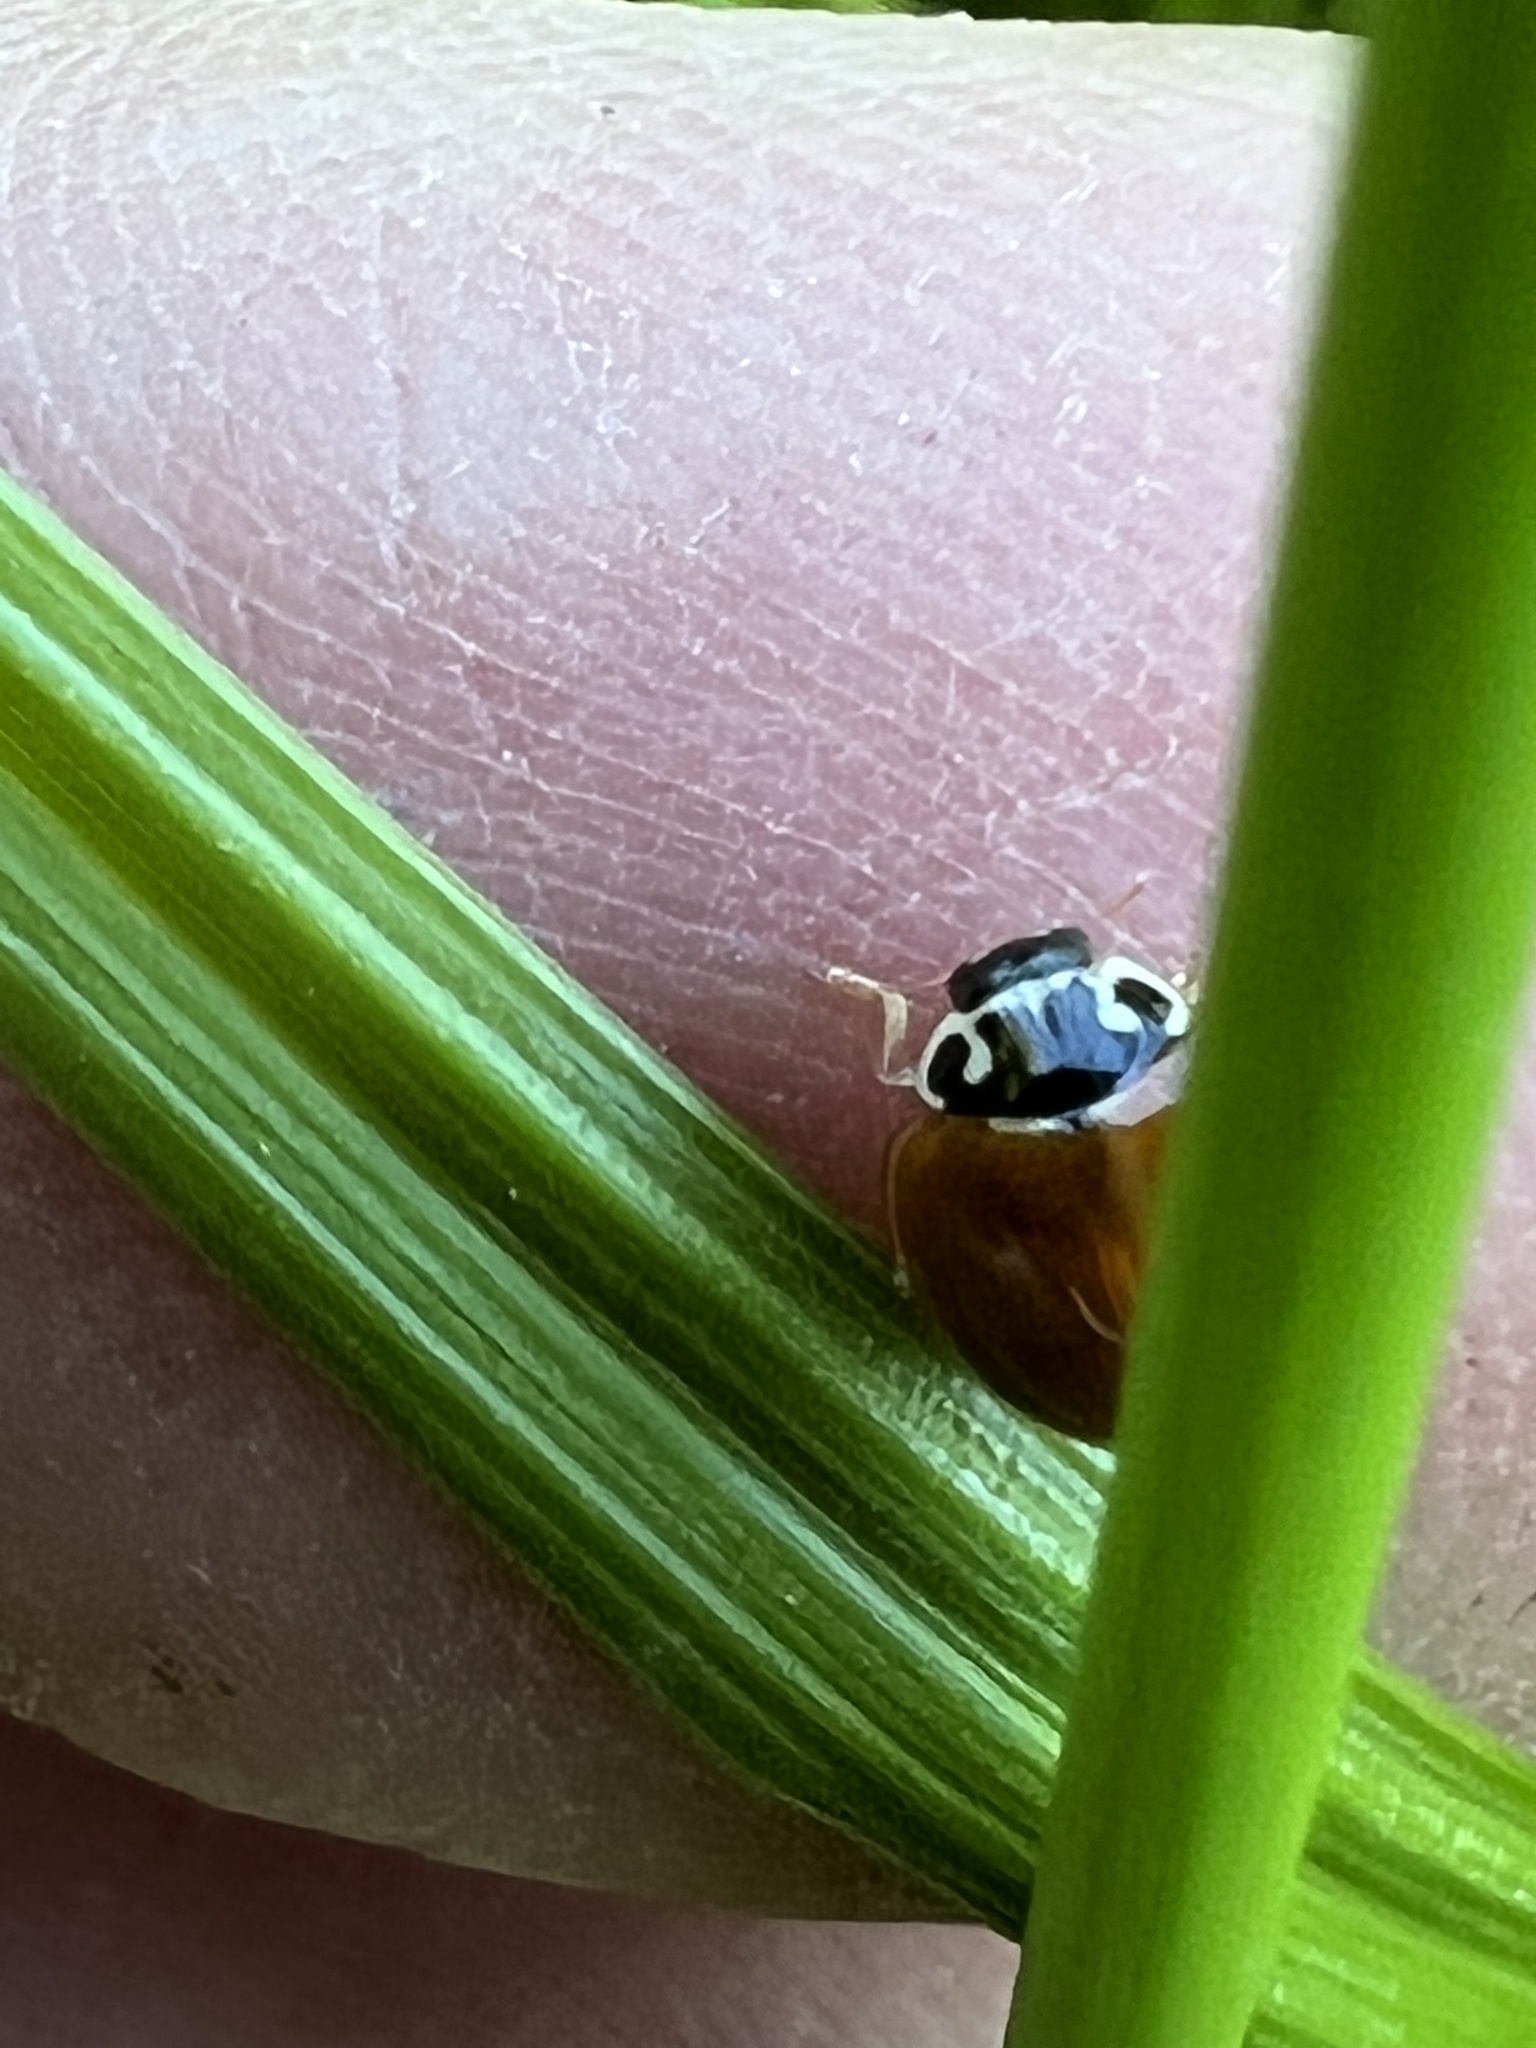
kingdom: Animalia
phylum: Arthropoda
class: Insecta
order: Coleoptera
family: Coccinellidae
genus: Cycloneda
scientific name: Cycloneda munda
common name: Polished lady beetle
